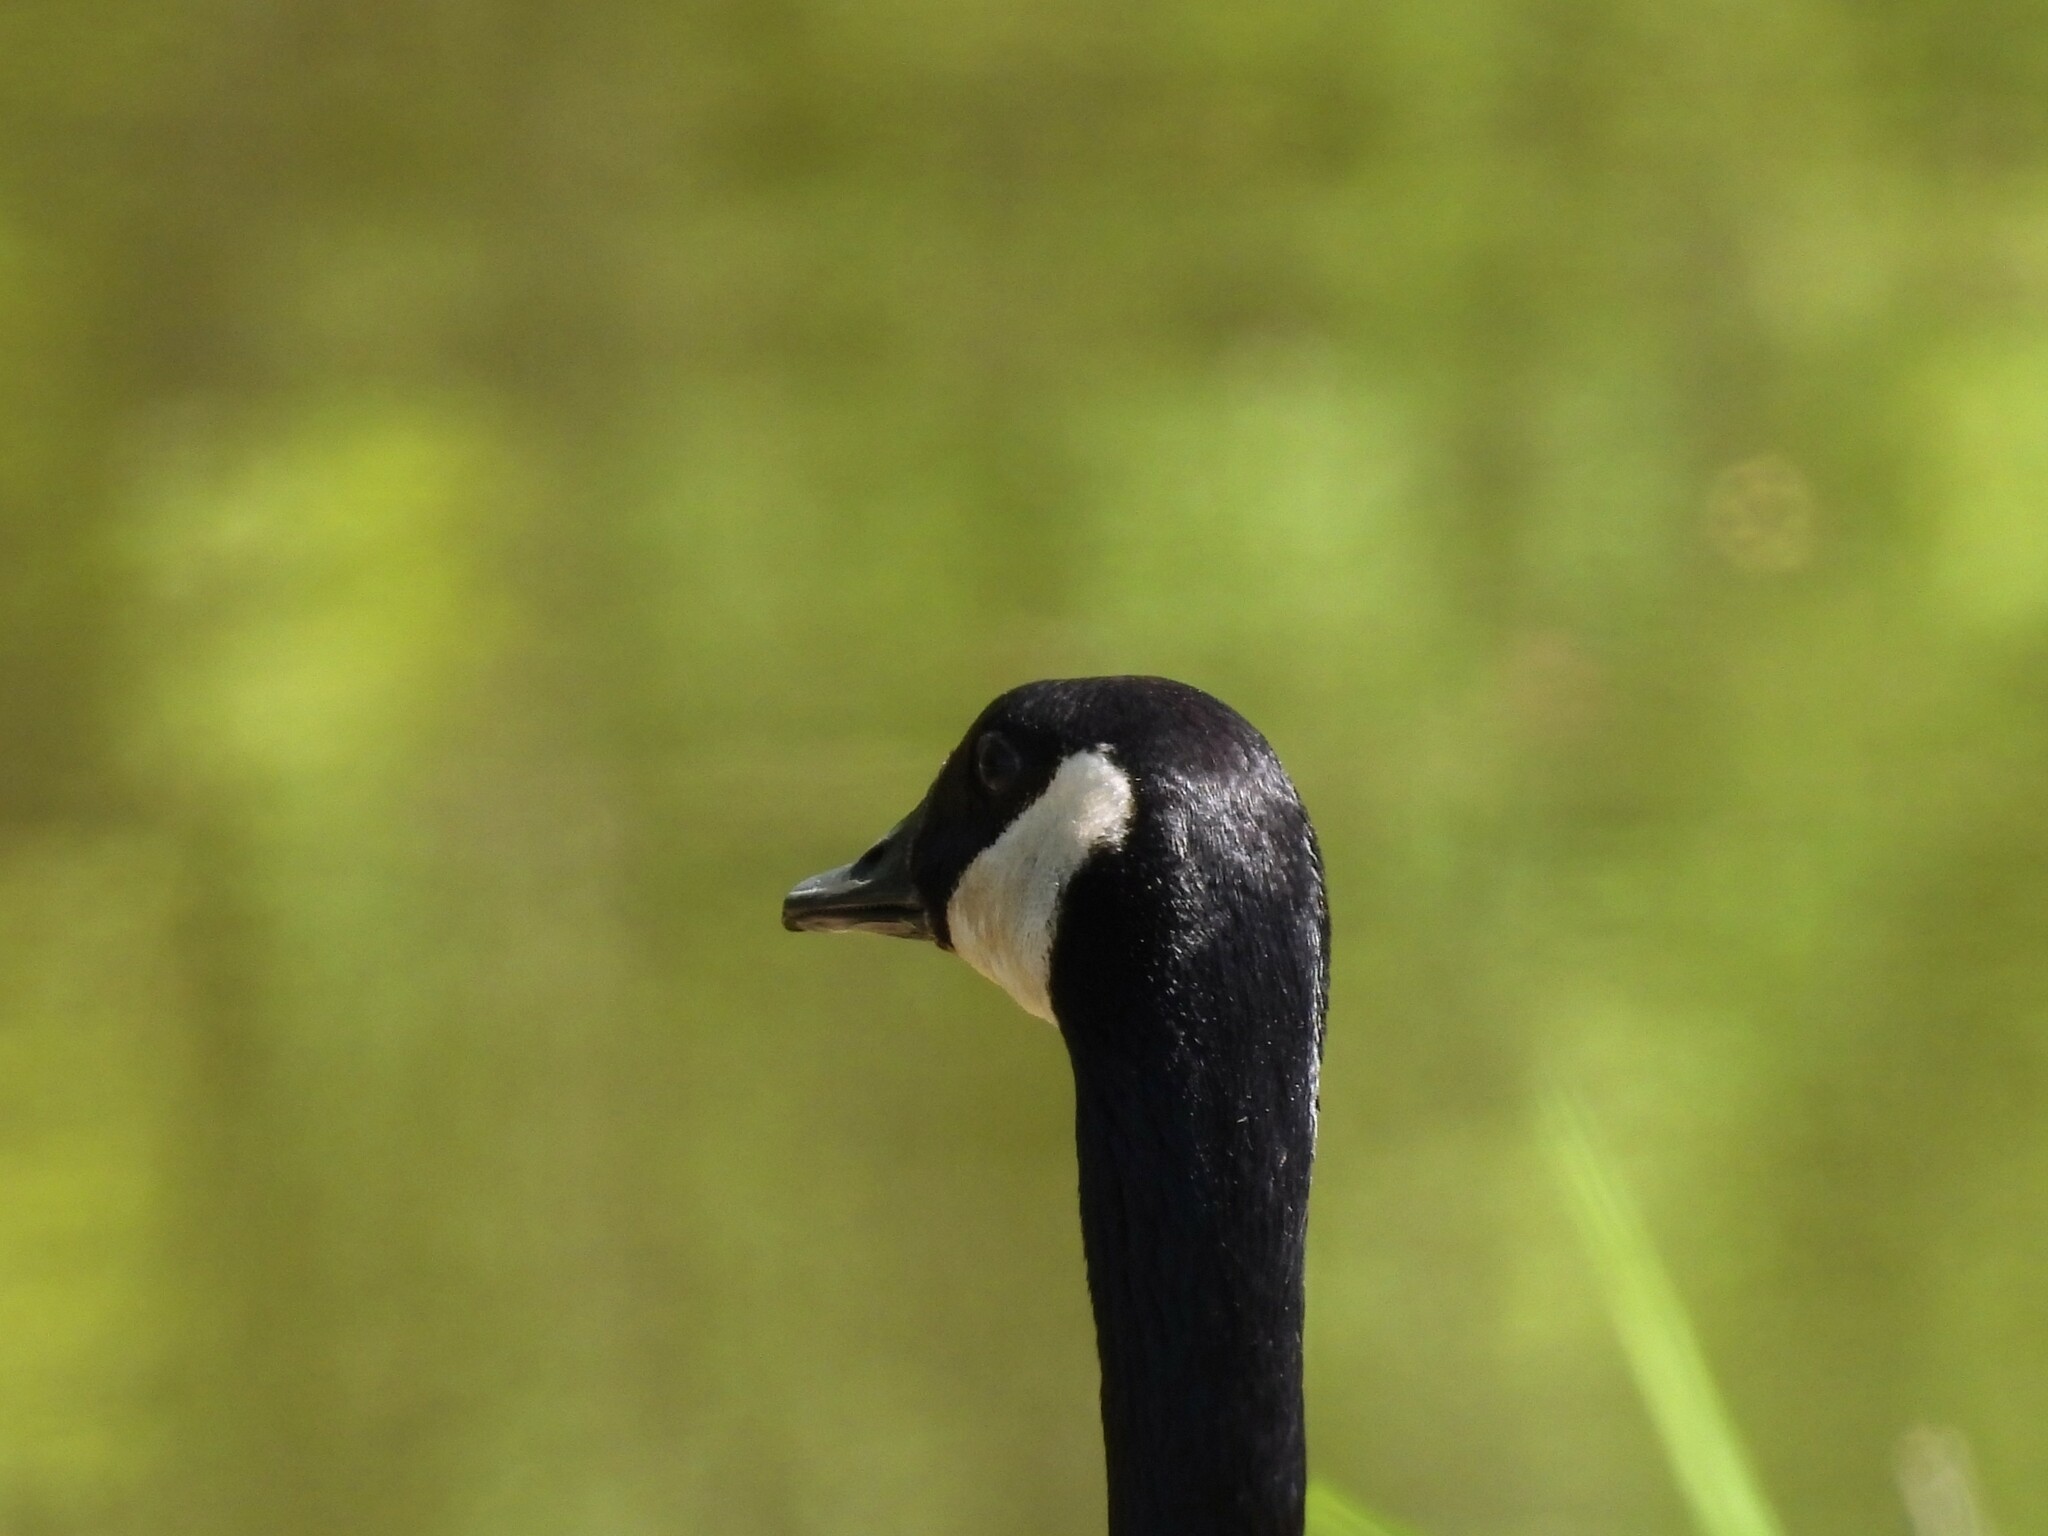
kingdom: Animalia
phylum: Chordata
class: Aves
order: Anseriformes
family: Anatidae
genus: Branta
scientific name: Branta canadensis
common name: Canada goose
